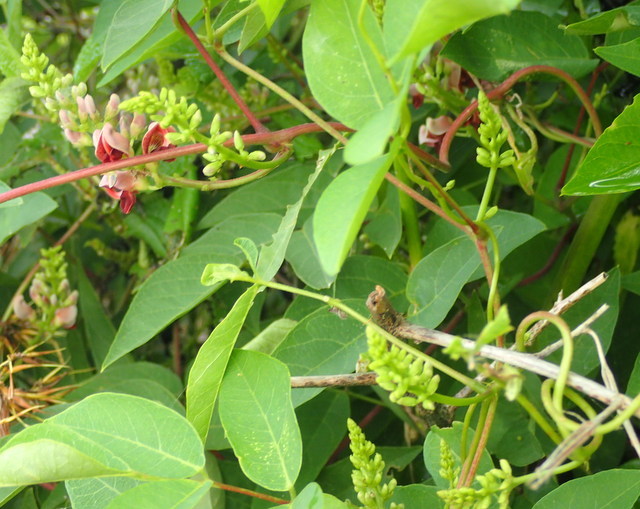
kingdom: Plantae
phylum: Tracheophyta
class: Magnoliopsida
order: Fabales
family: Fabaceae
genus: Apios
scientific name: Apios americana
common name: American potato-bean
